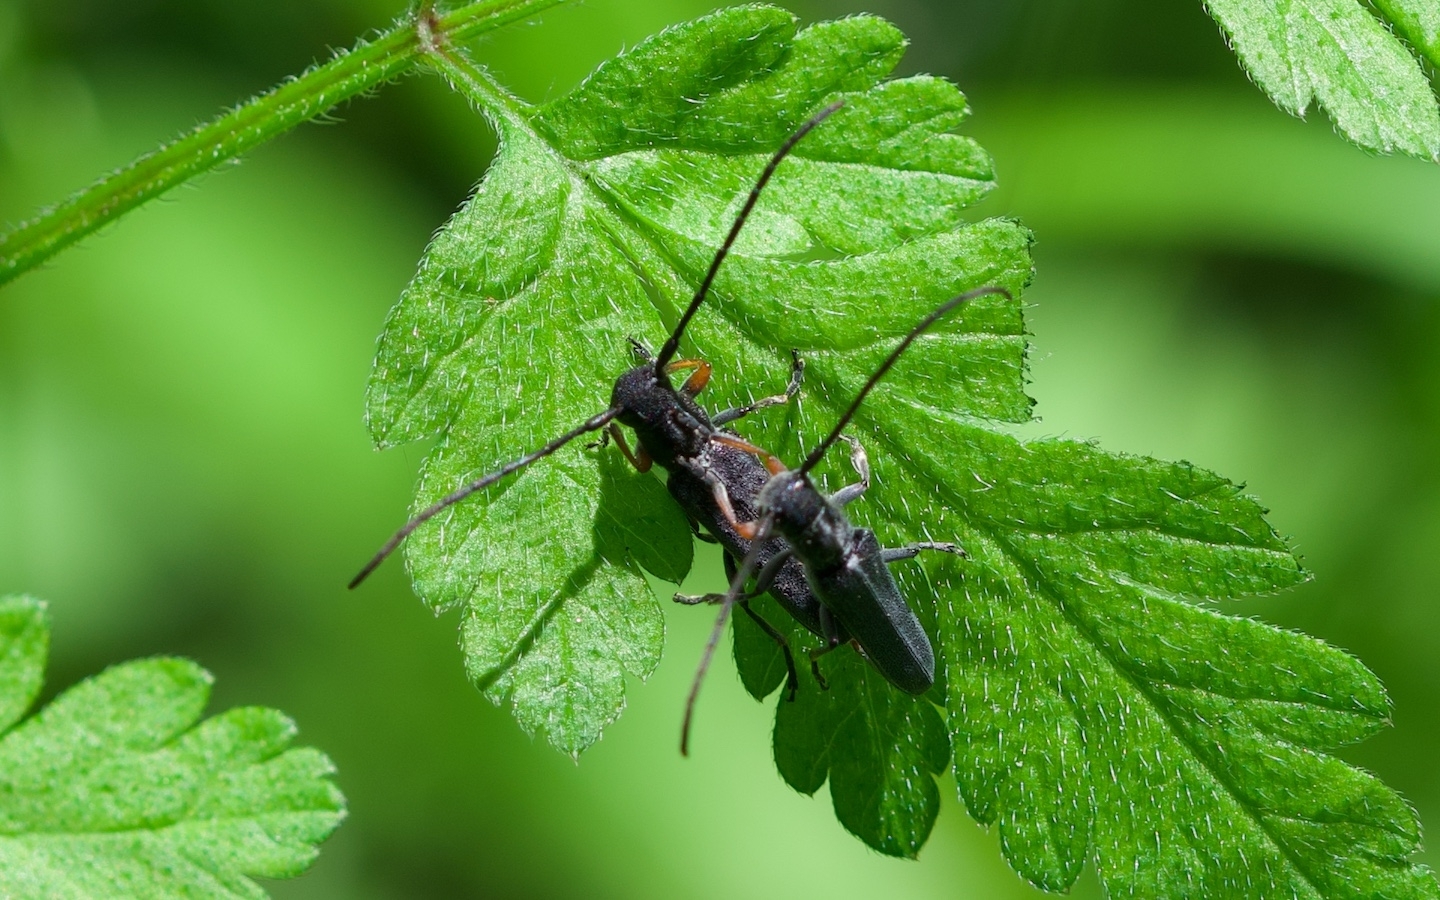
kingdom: Animalia
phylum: Arthropoda
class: Insecta
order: Coleoptera
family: Cerambycidae
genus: Phytoecia
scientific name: Phytoecia cylindrica
